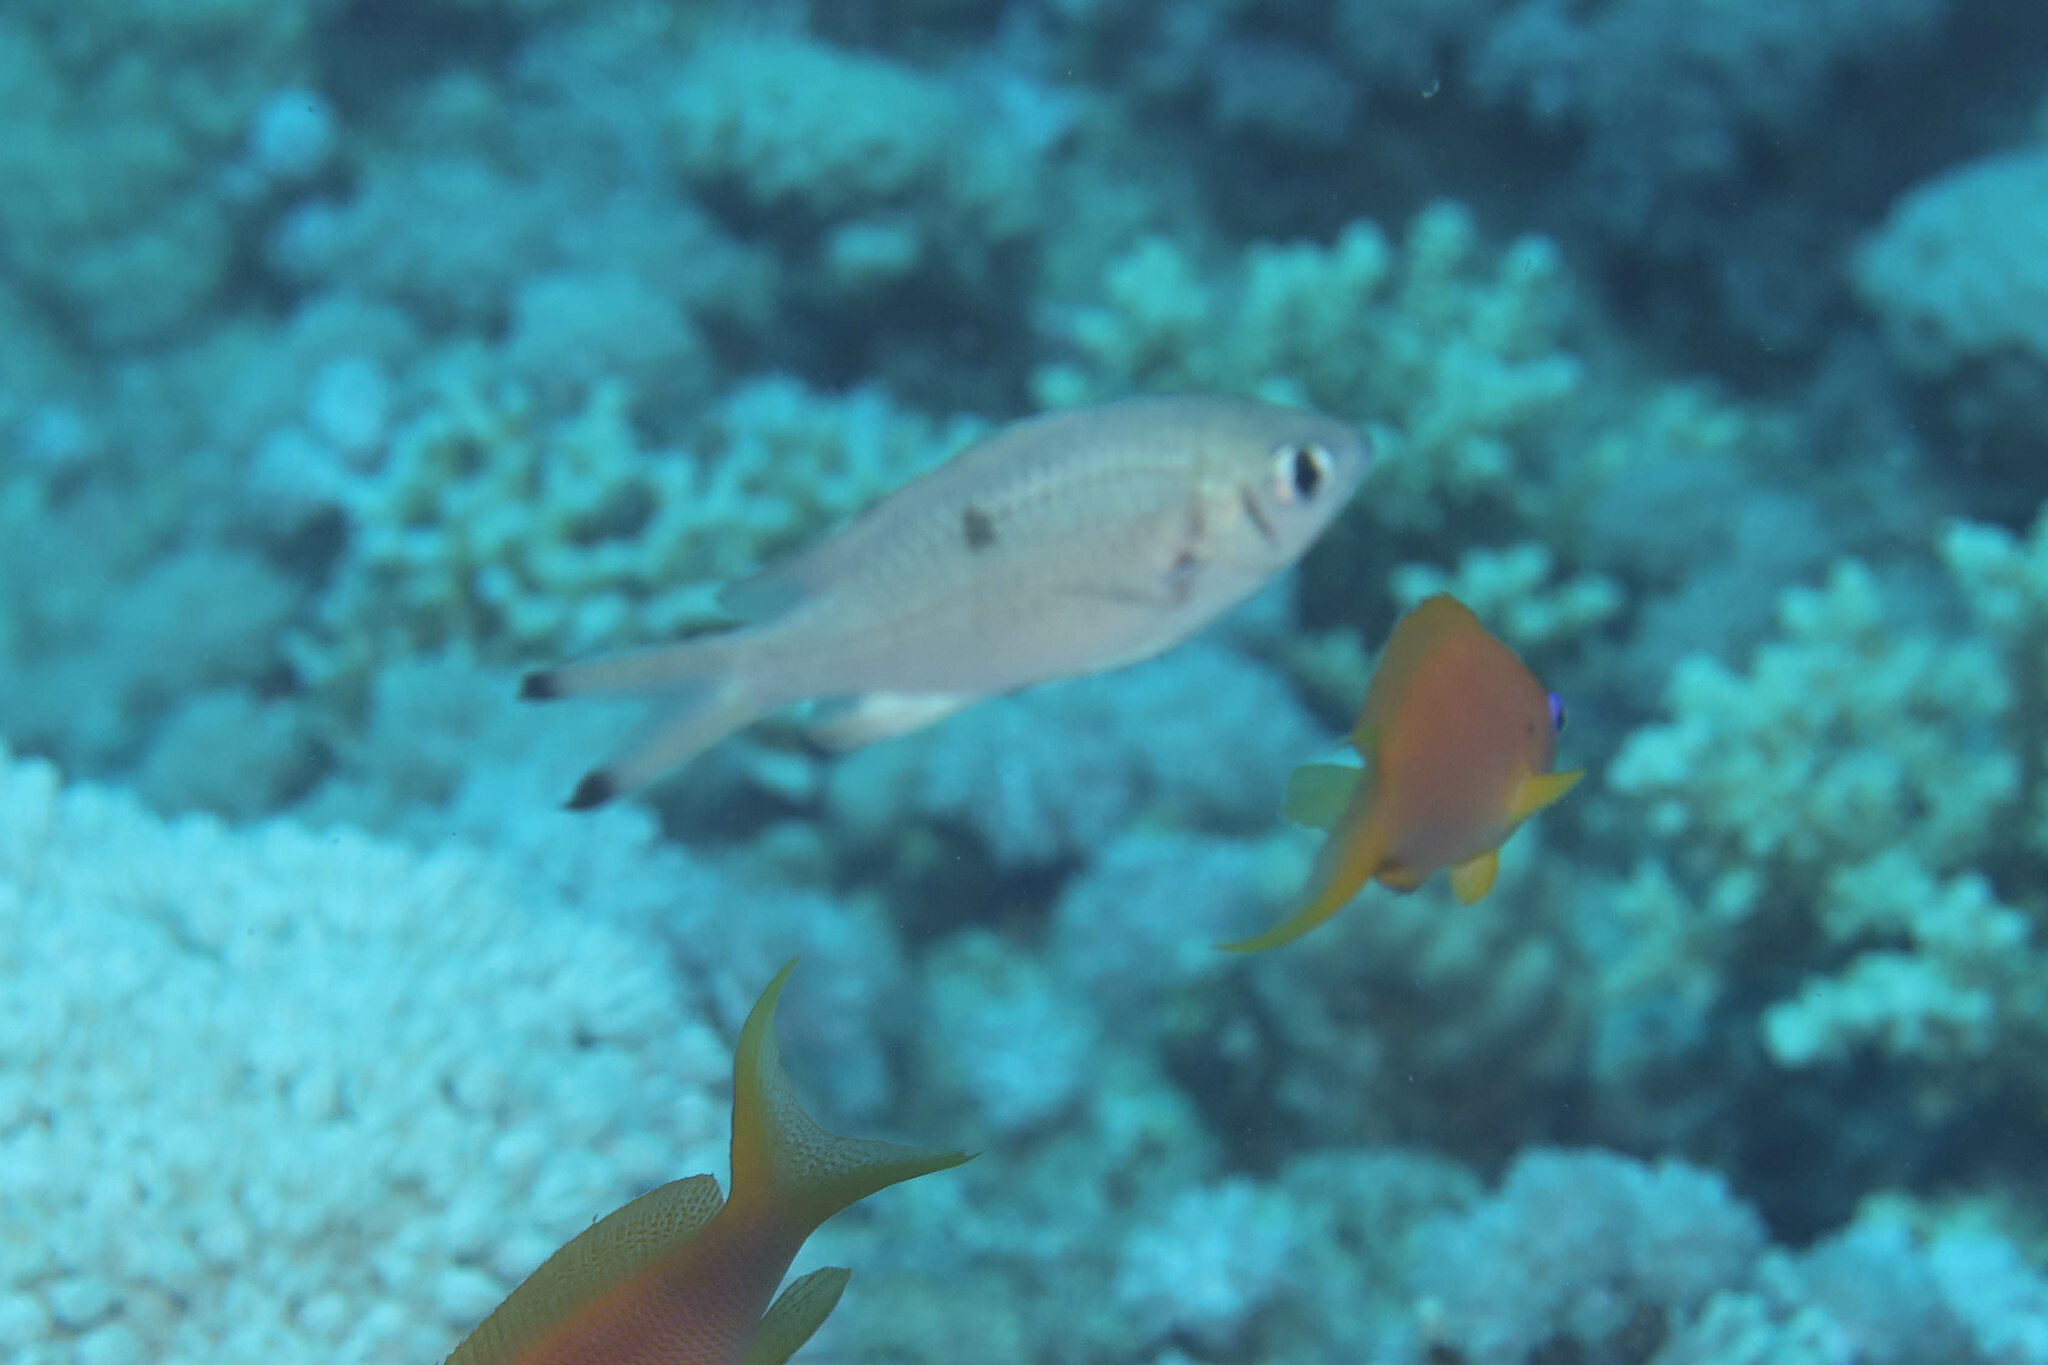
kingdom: Animalia
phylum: Chordata
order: Perciformes
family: Pomacentridae
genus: Chromis
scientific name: Chromis weberi
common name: Weber's chromis
